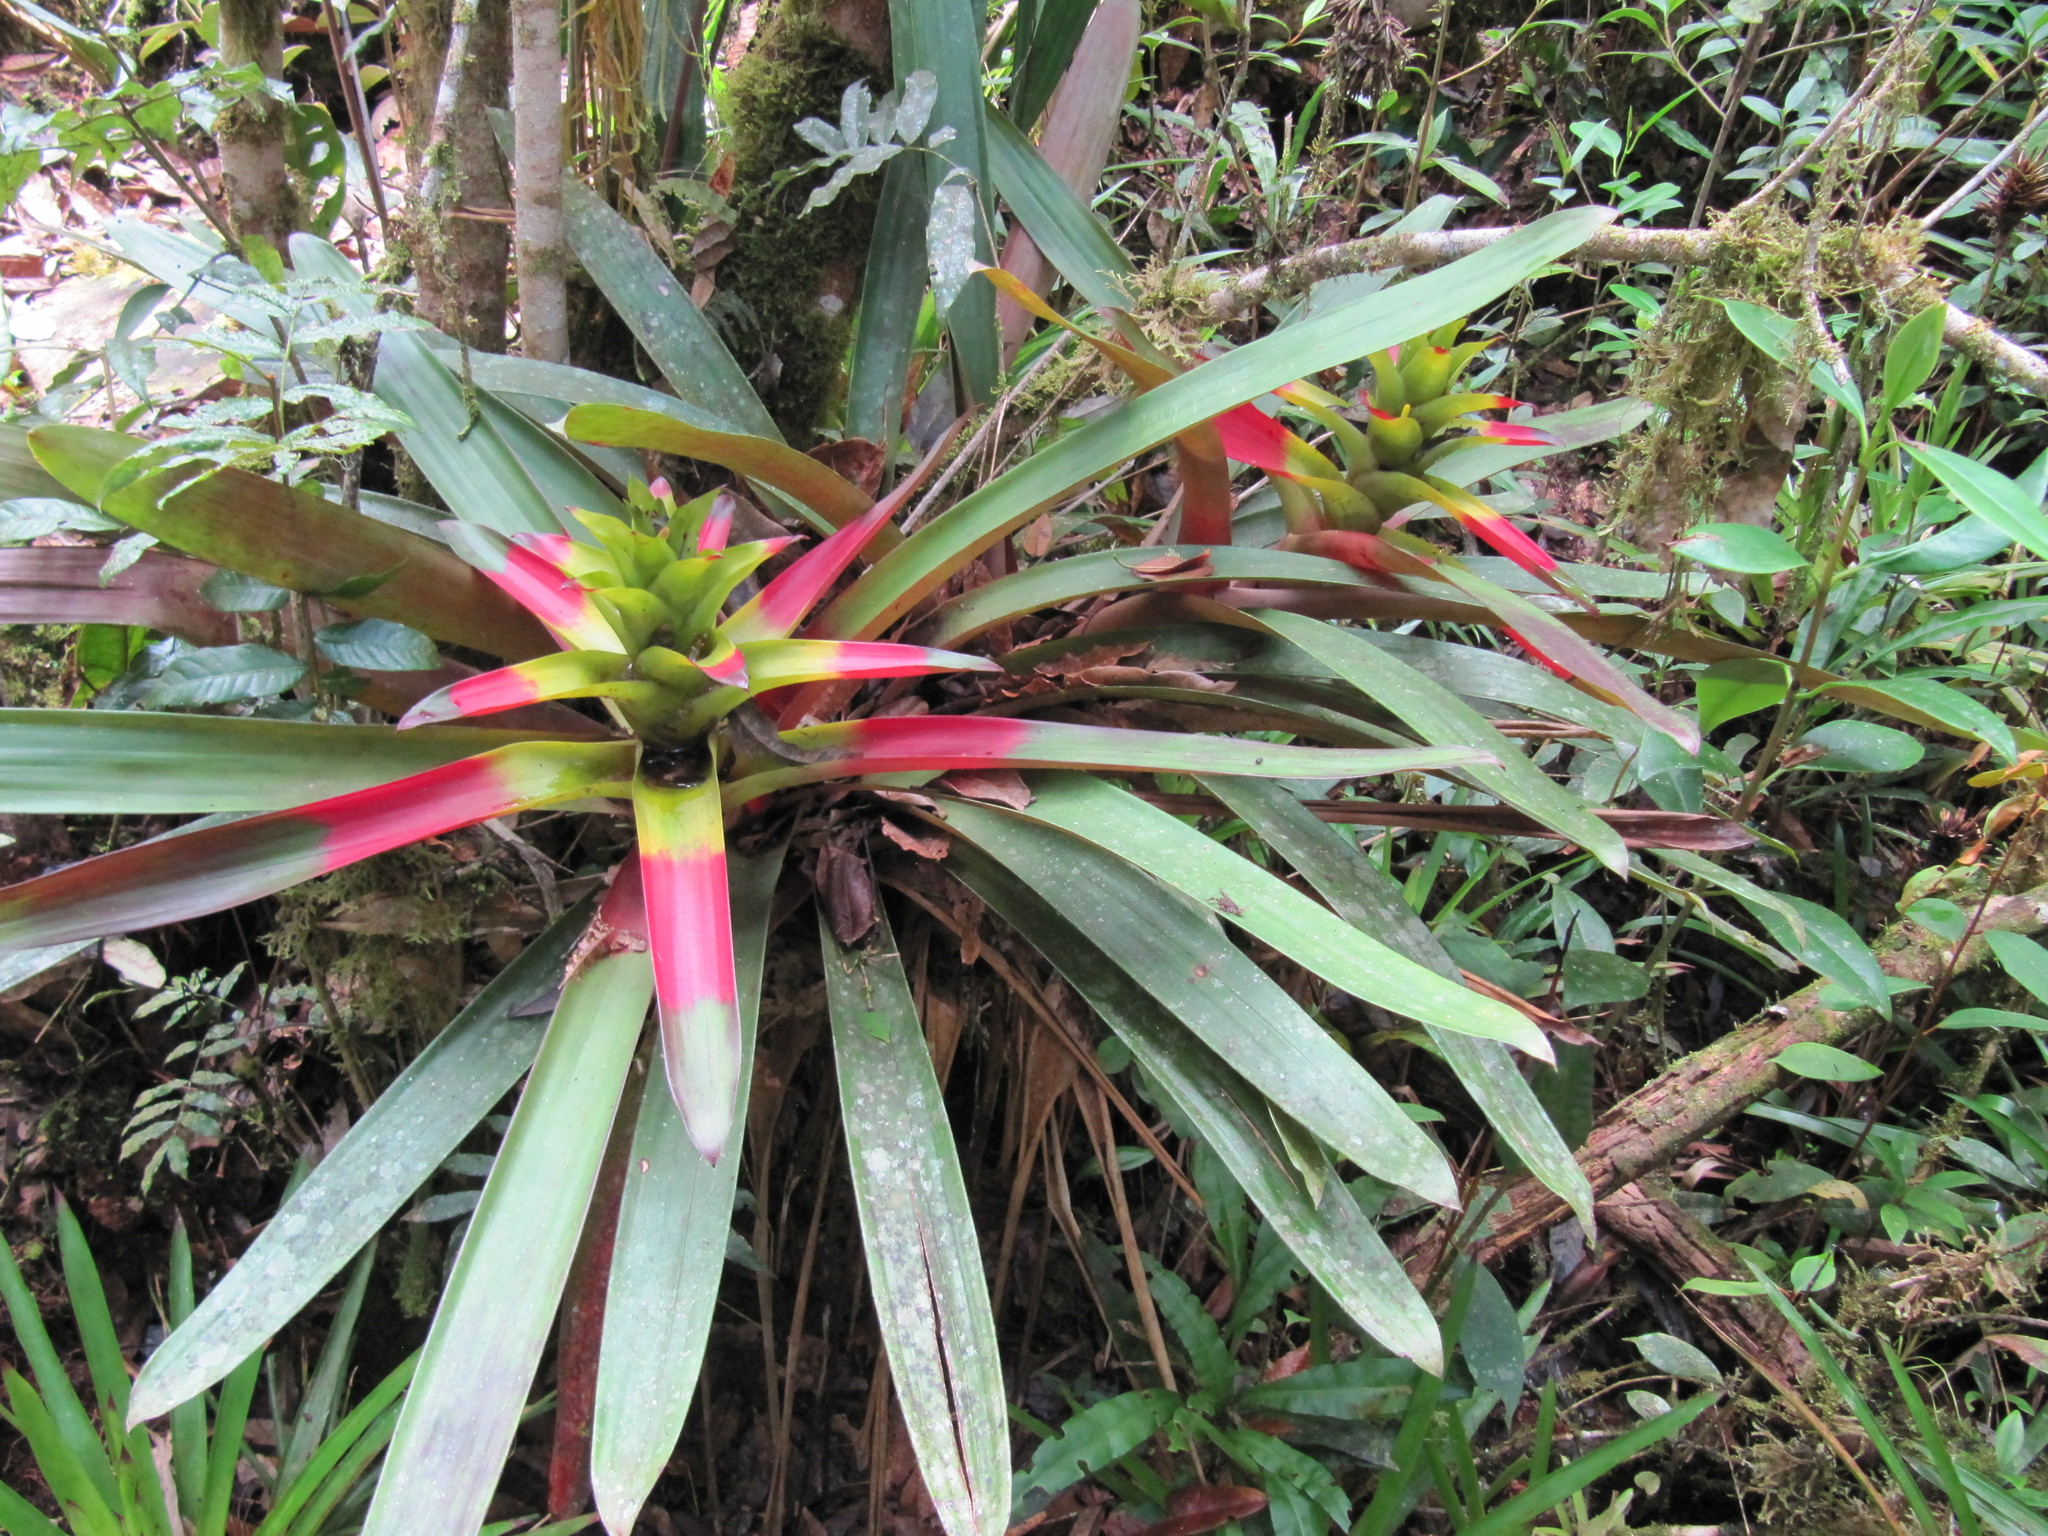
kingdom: Plantae
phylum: Tracheophyta
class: Liliopsida
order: Poales
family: Bromeliaceae
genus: Guzmania
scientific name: Guzmania squarrosa
